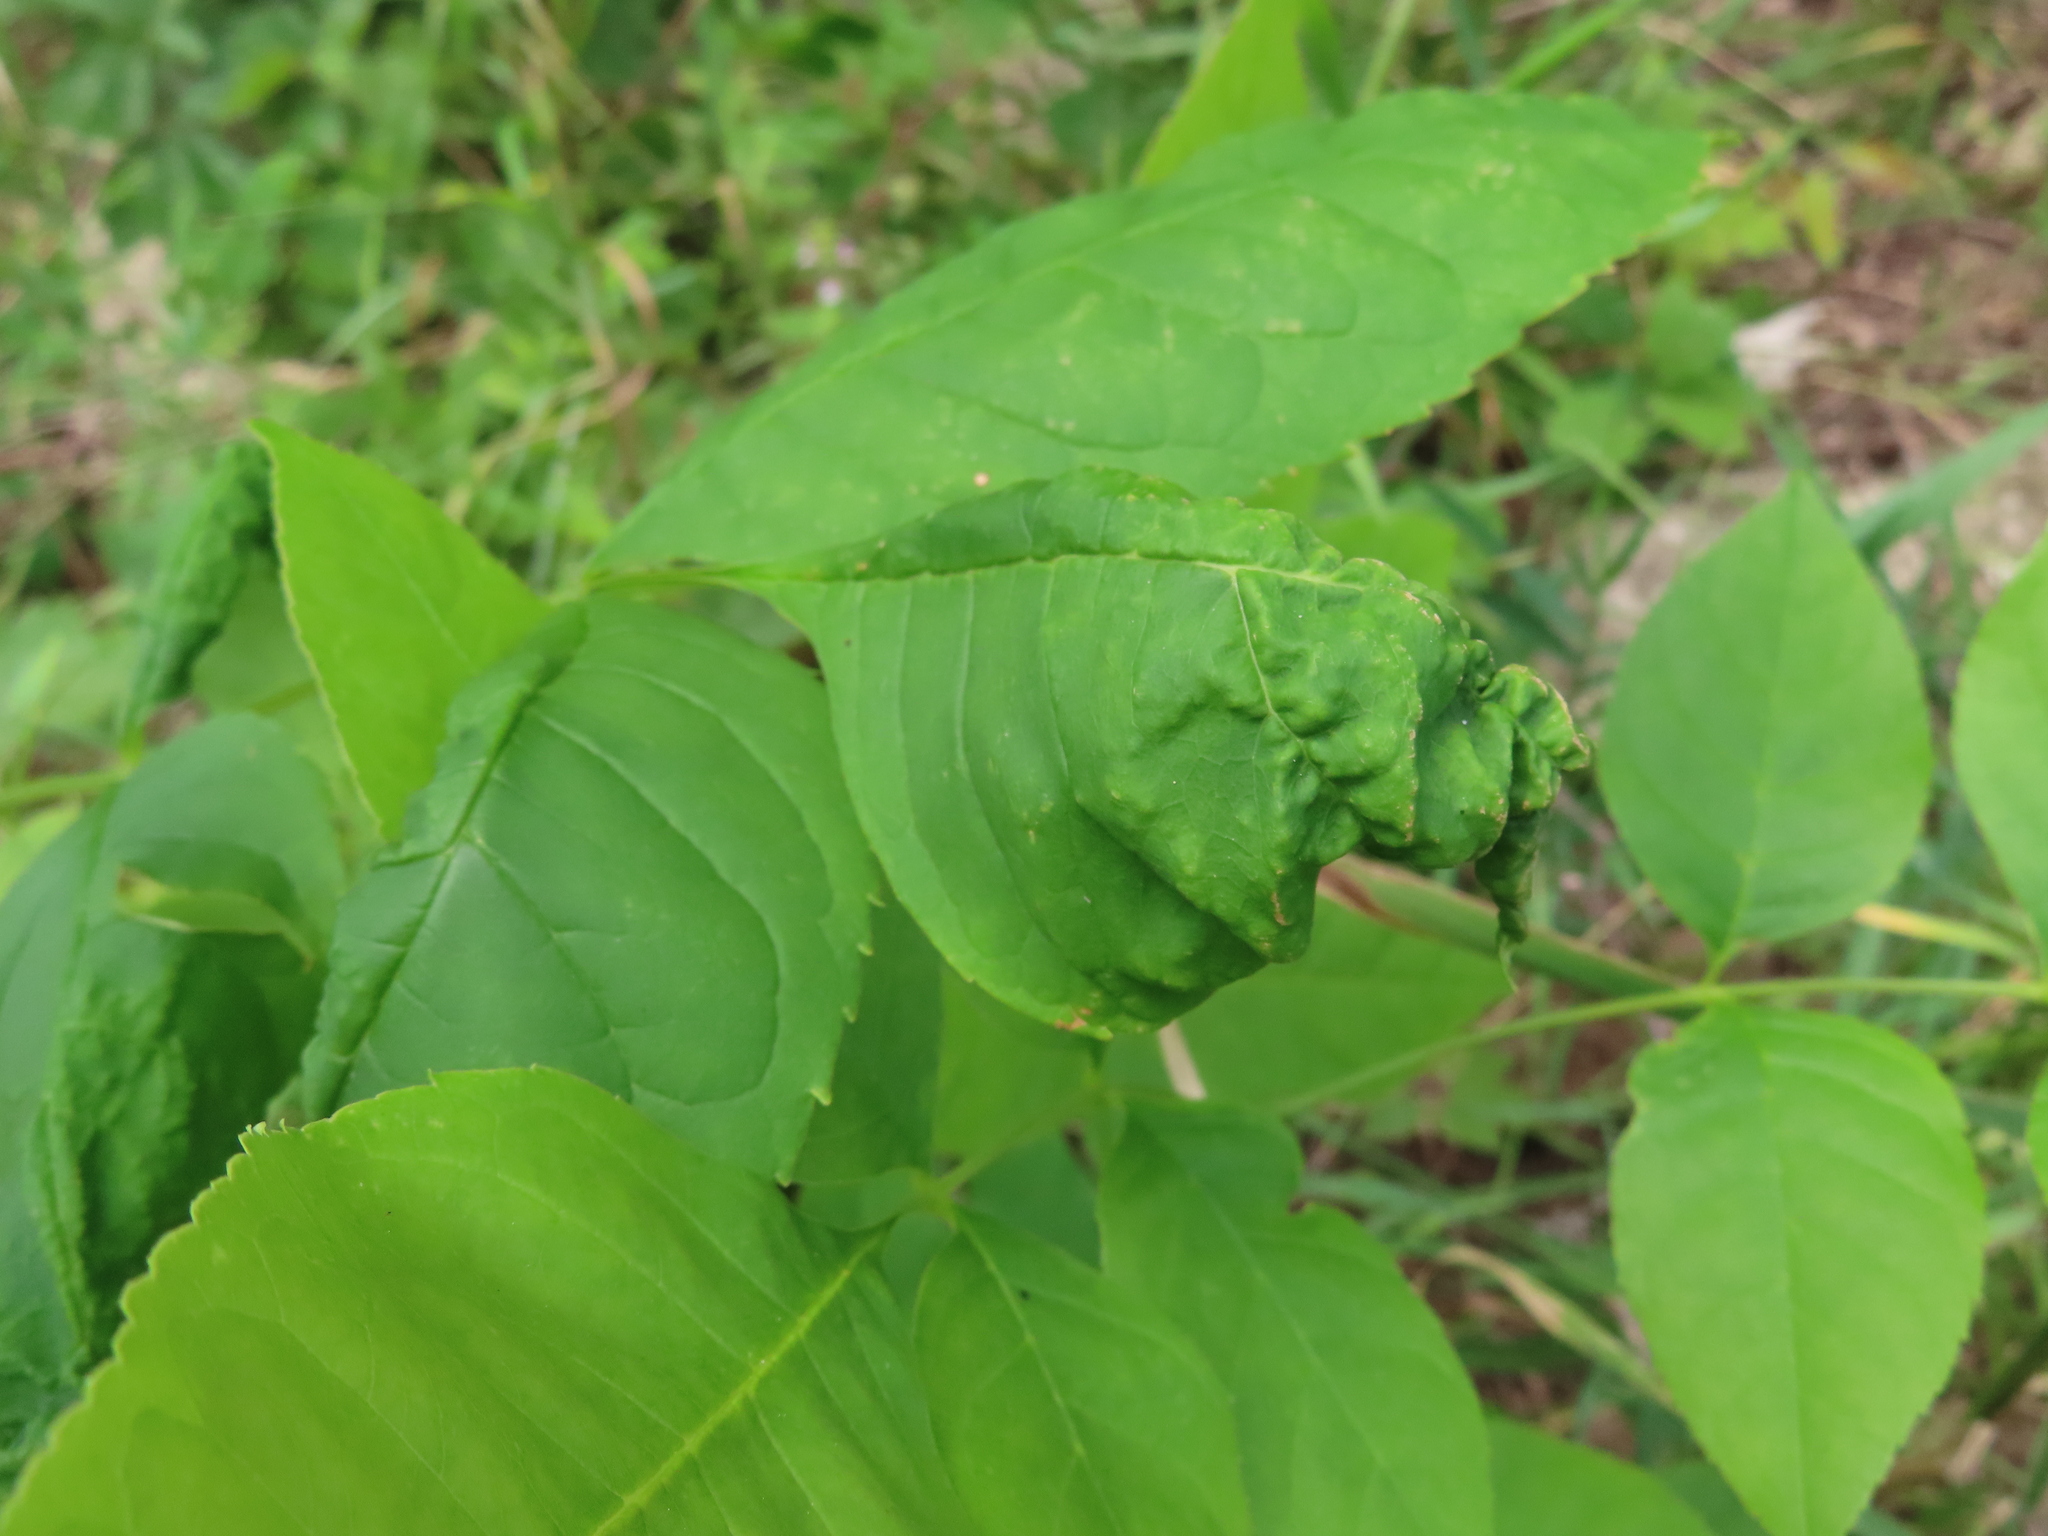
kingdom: Animalia
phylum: Arthropoda
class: Insecta
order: Hemiptera
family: Aphididae
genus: Prociphilus
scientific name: Prociphilus fraxinifolii
